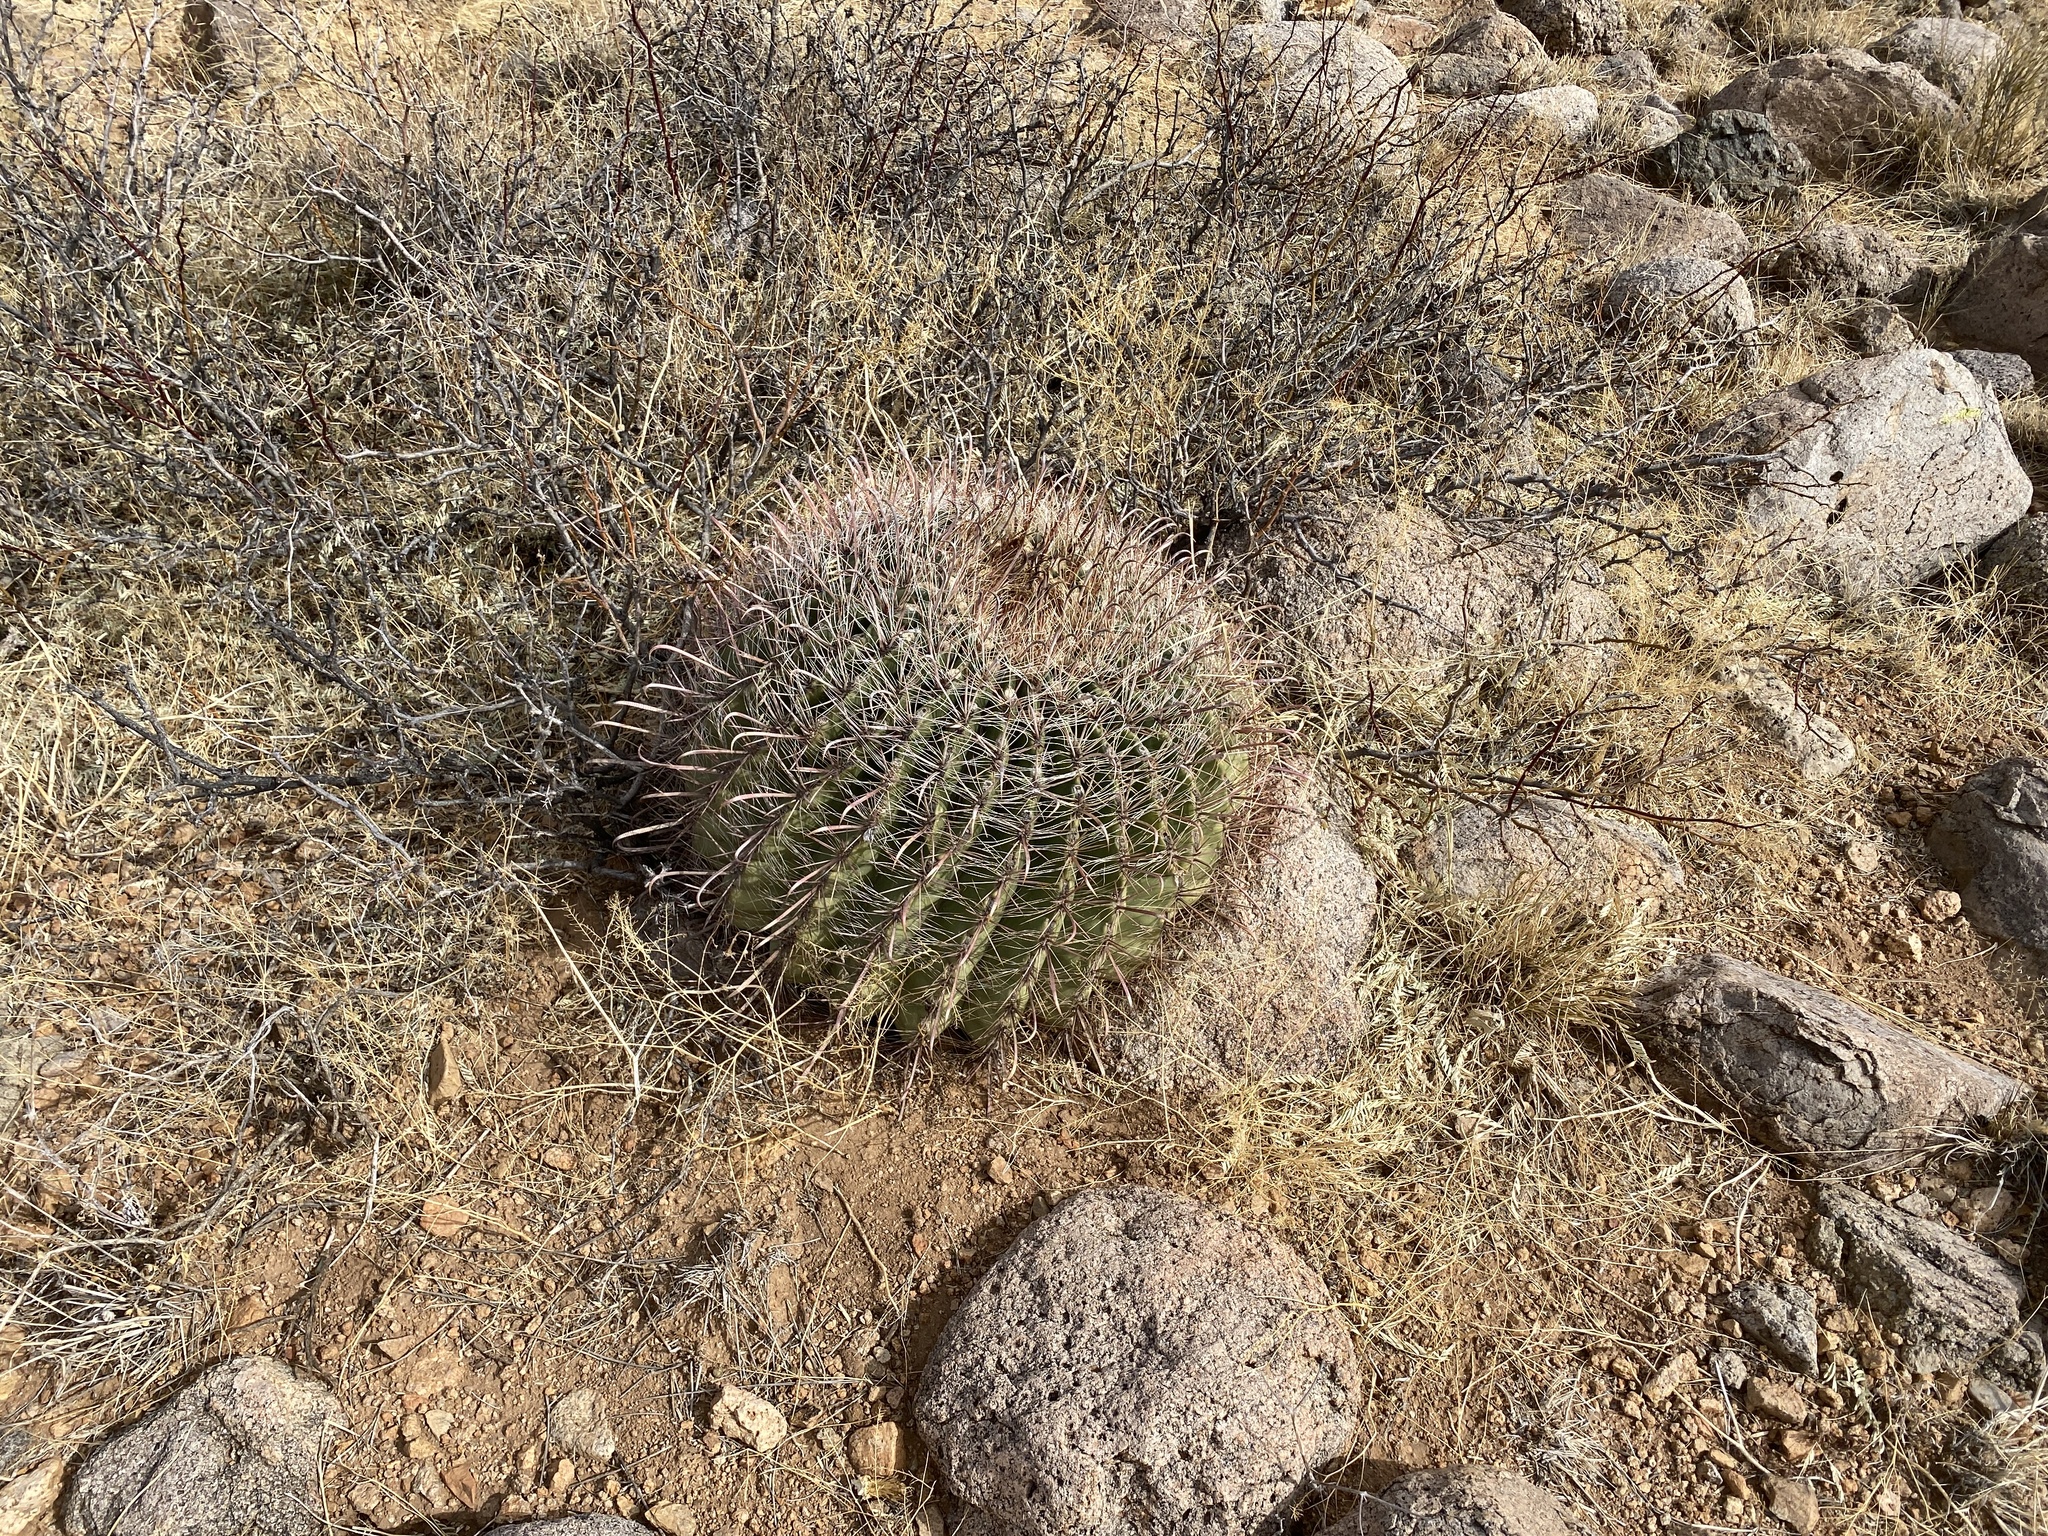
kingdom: Plantae
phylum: Tracheophyta
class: Magnoliopsida
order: Caryophyllales
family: Cactaceae
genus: Ferocactus
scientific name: Ferocactus wislizeni
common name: Candy barrel cactus
